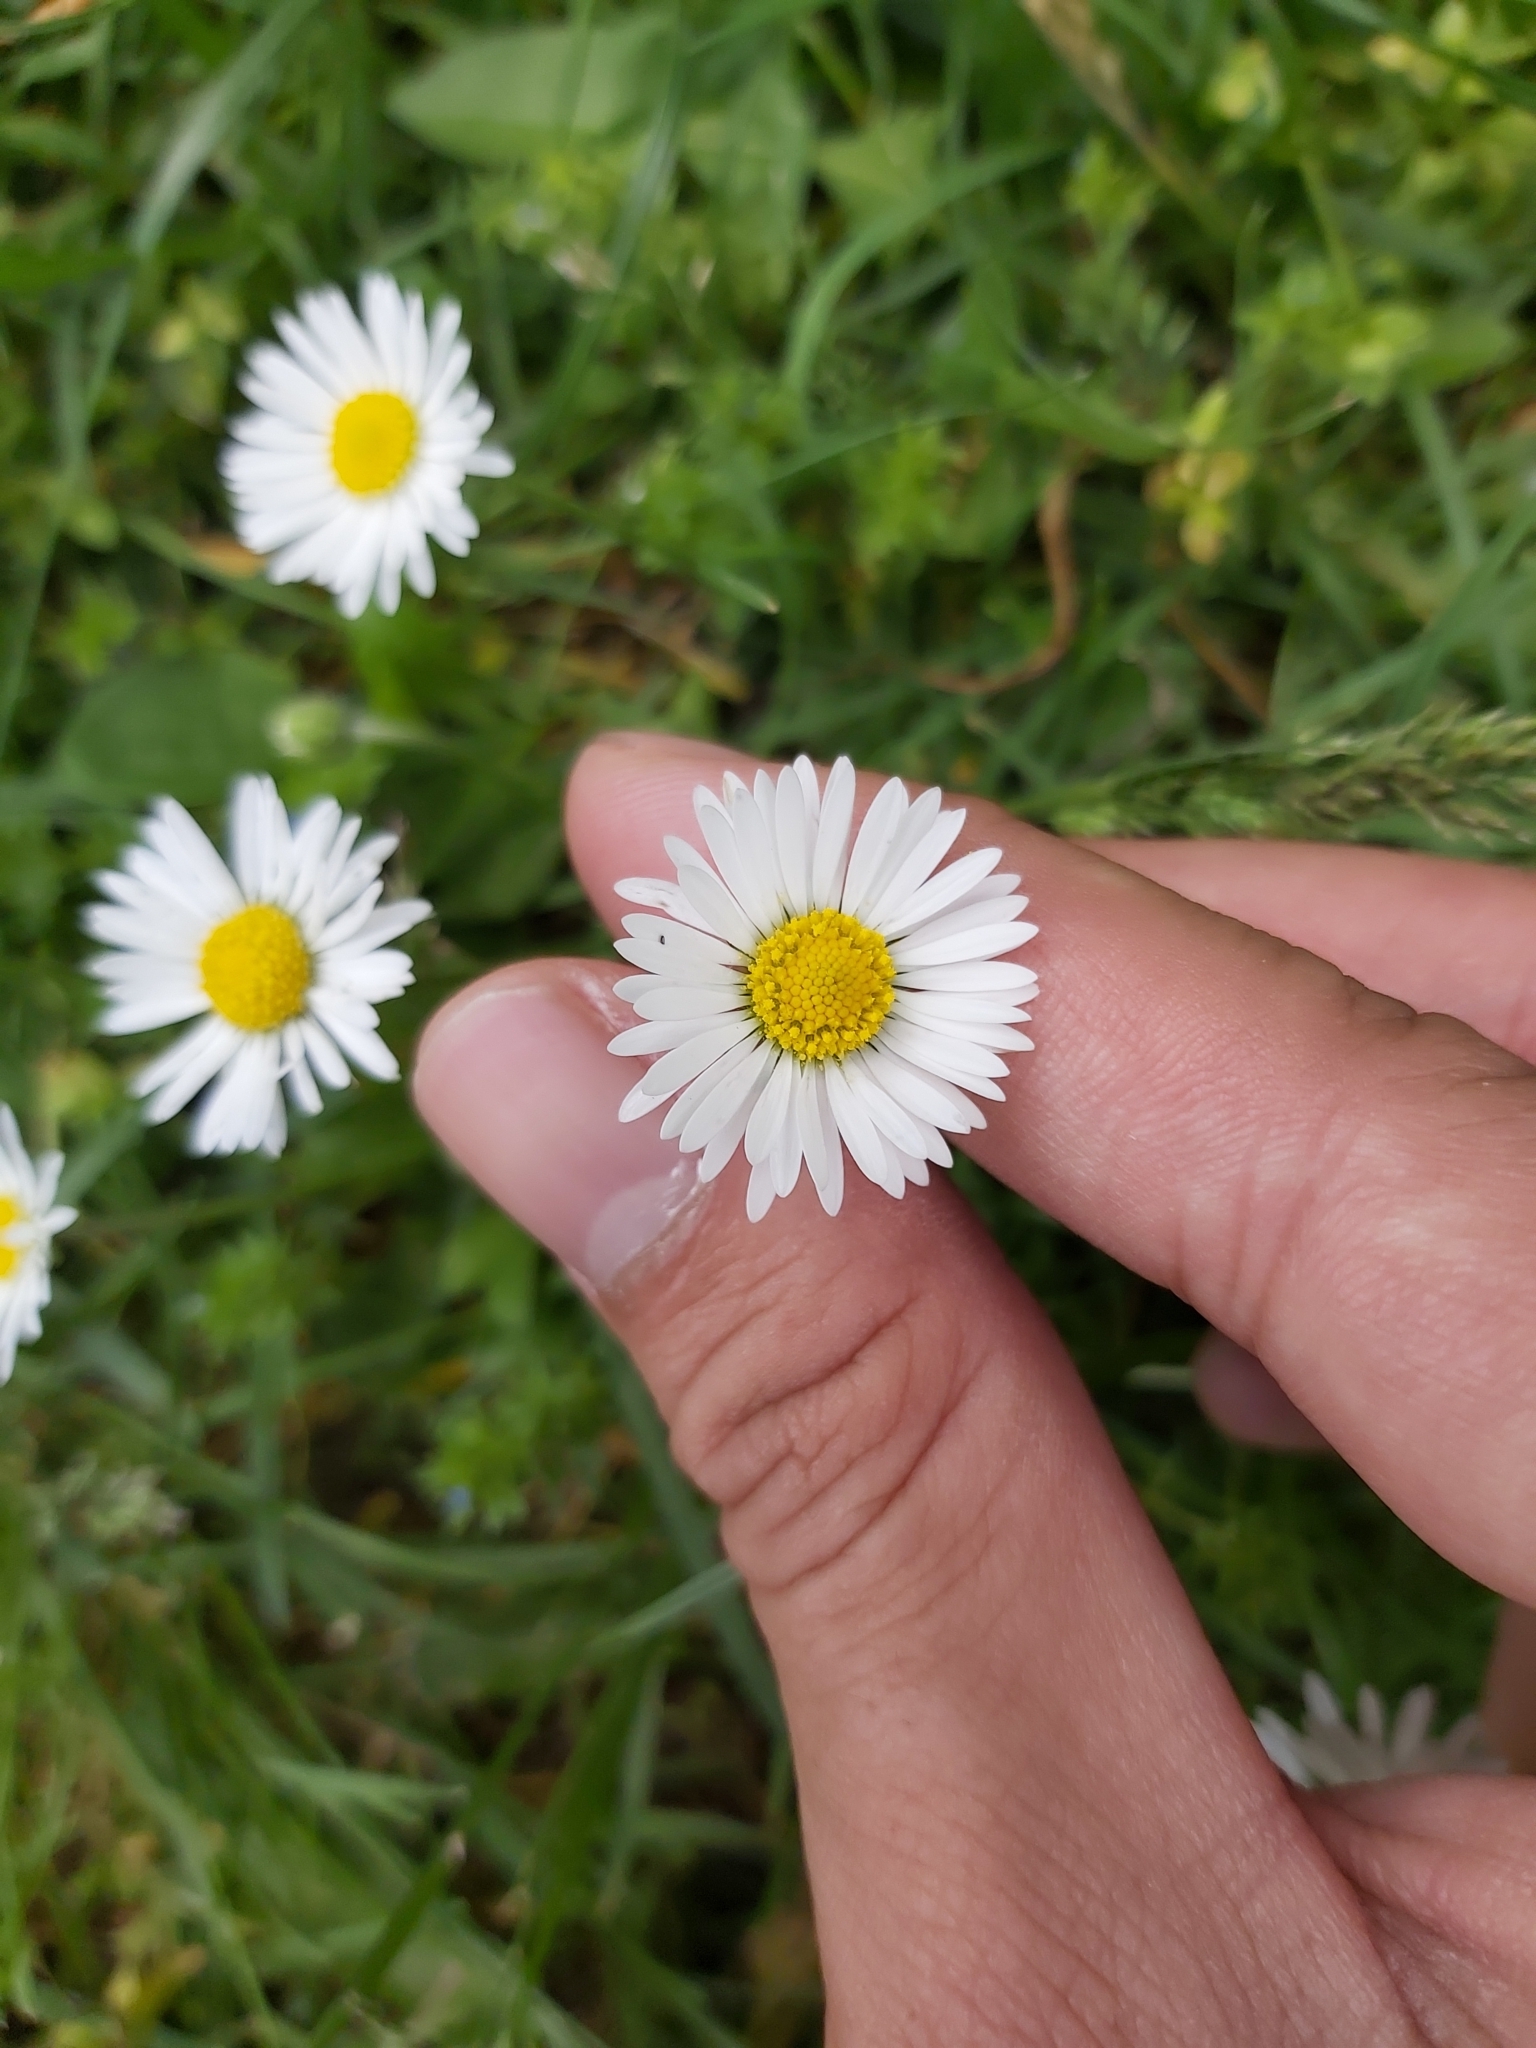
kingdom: Plantae
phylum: Tracheophyta
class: Magnoliopsida
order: Asterales
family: Asteraceae
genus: Bellis
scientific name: Bellis perennis
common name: Lawndaisy
